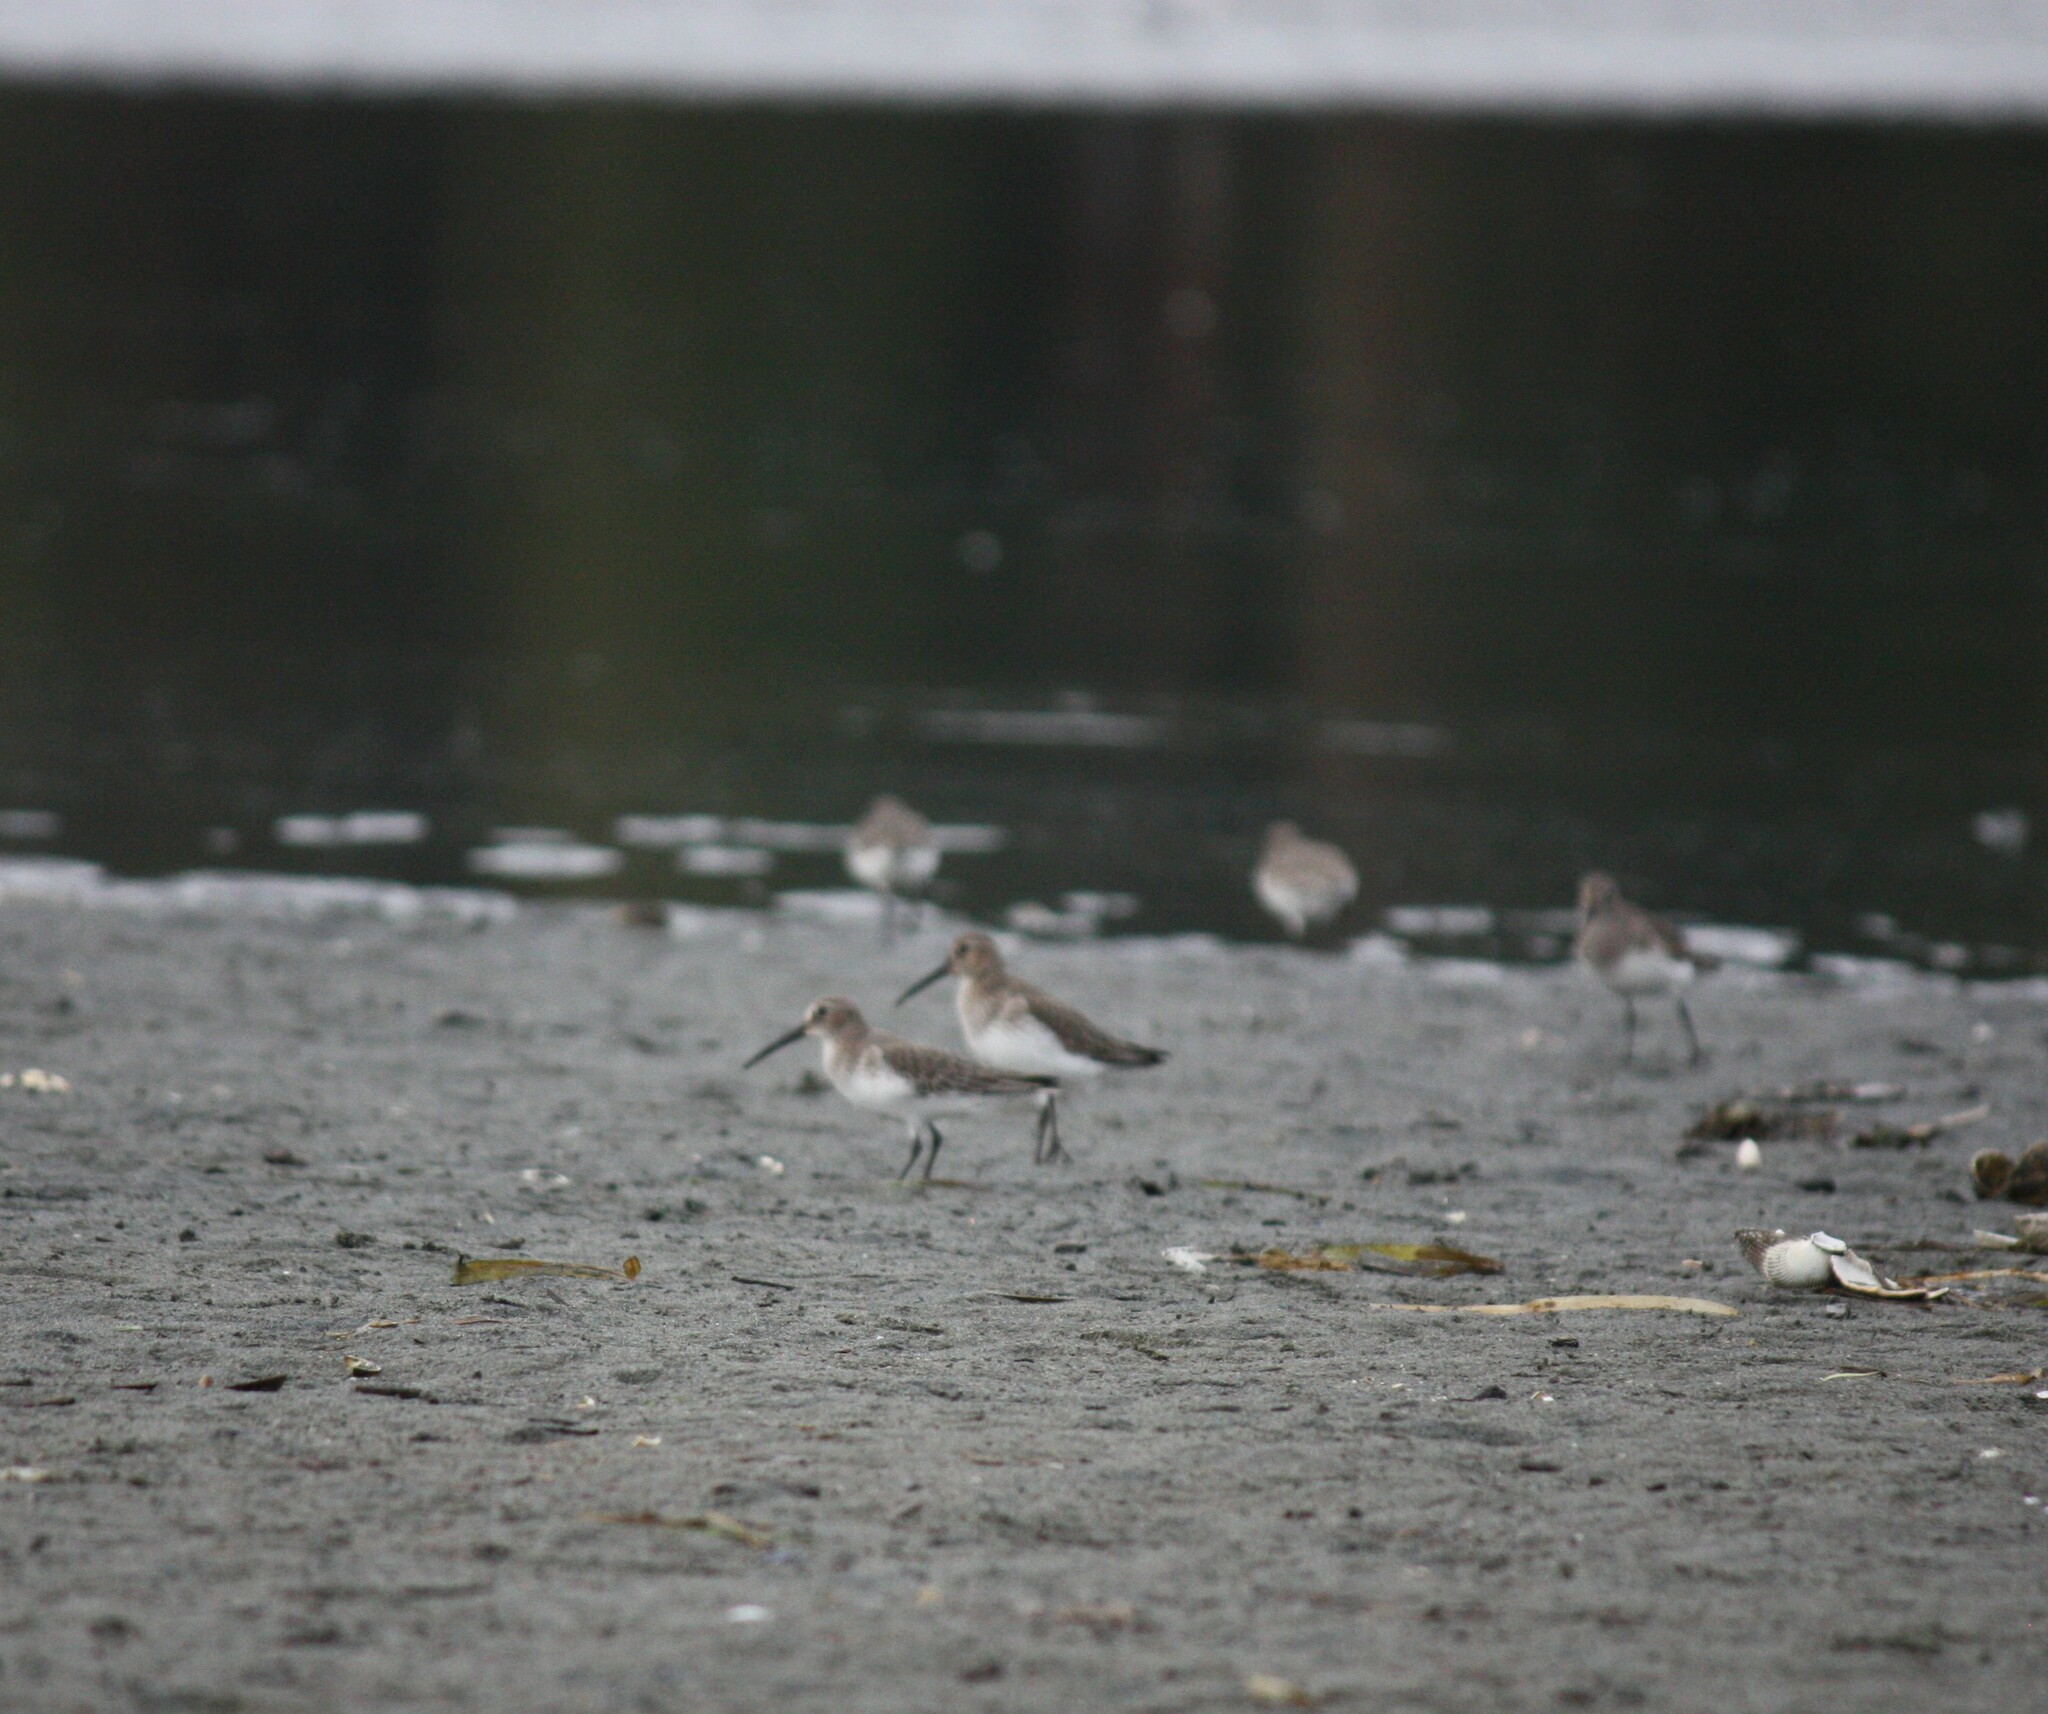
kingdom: Animalia
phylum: Chordata
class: Aves
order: Charadriiformes
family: Scolopacidae
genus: Calidris
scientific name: Calidris alpina
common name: Dunlin
